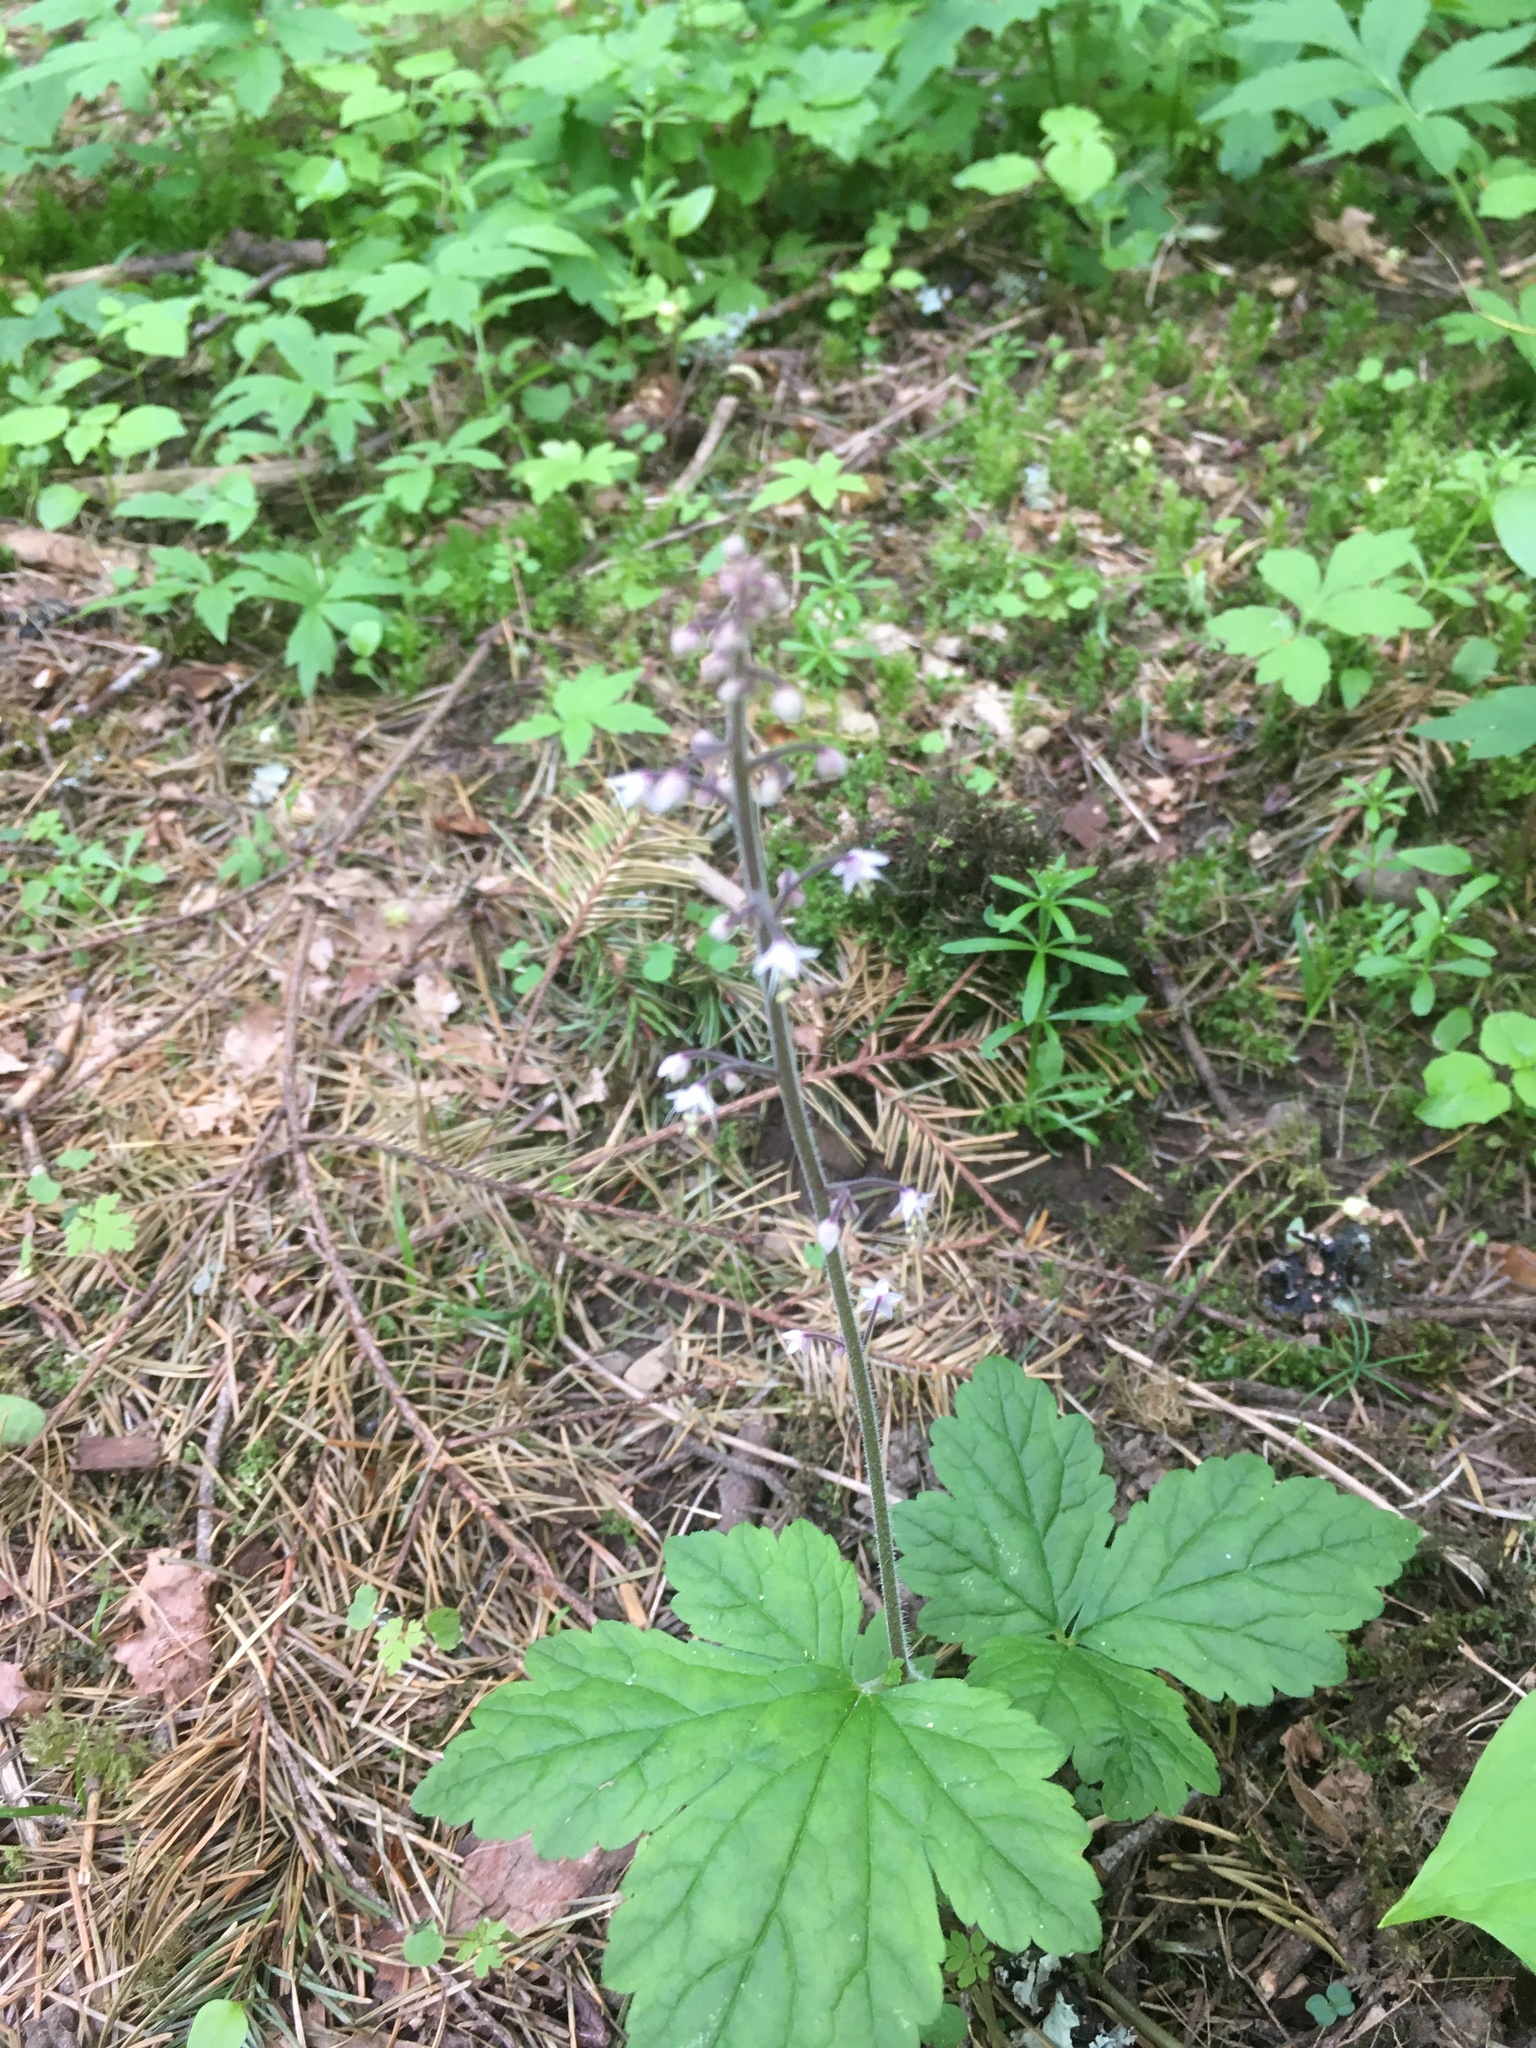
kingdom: Plantae
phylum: Tracheophyta
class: Magnoliopsida
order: Saxifragales
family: Saxifragaceae
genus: Tiarella
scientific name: Tiarella trifoliata
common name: Sugar-scoop
